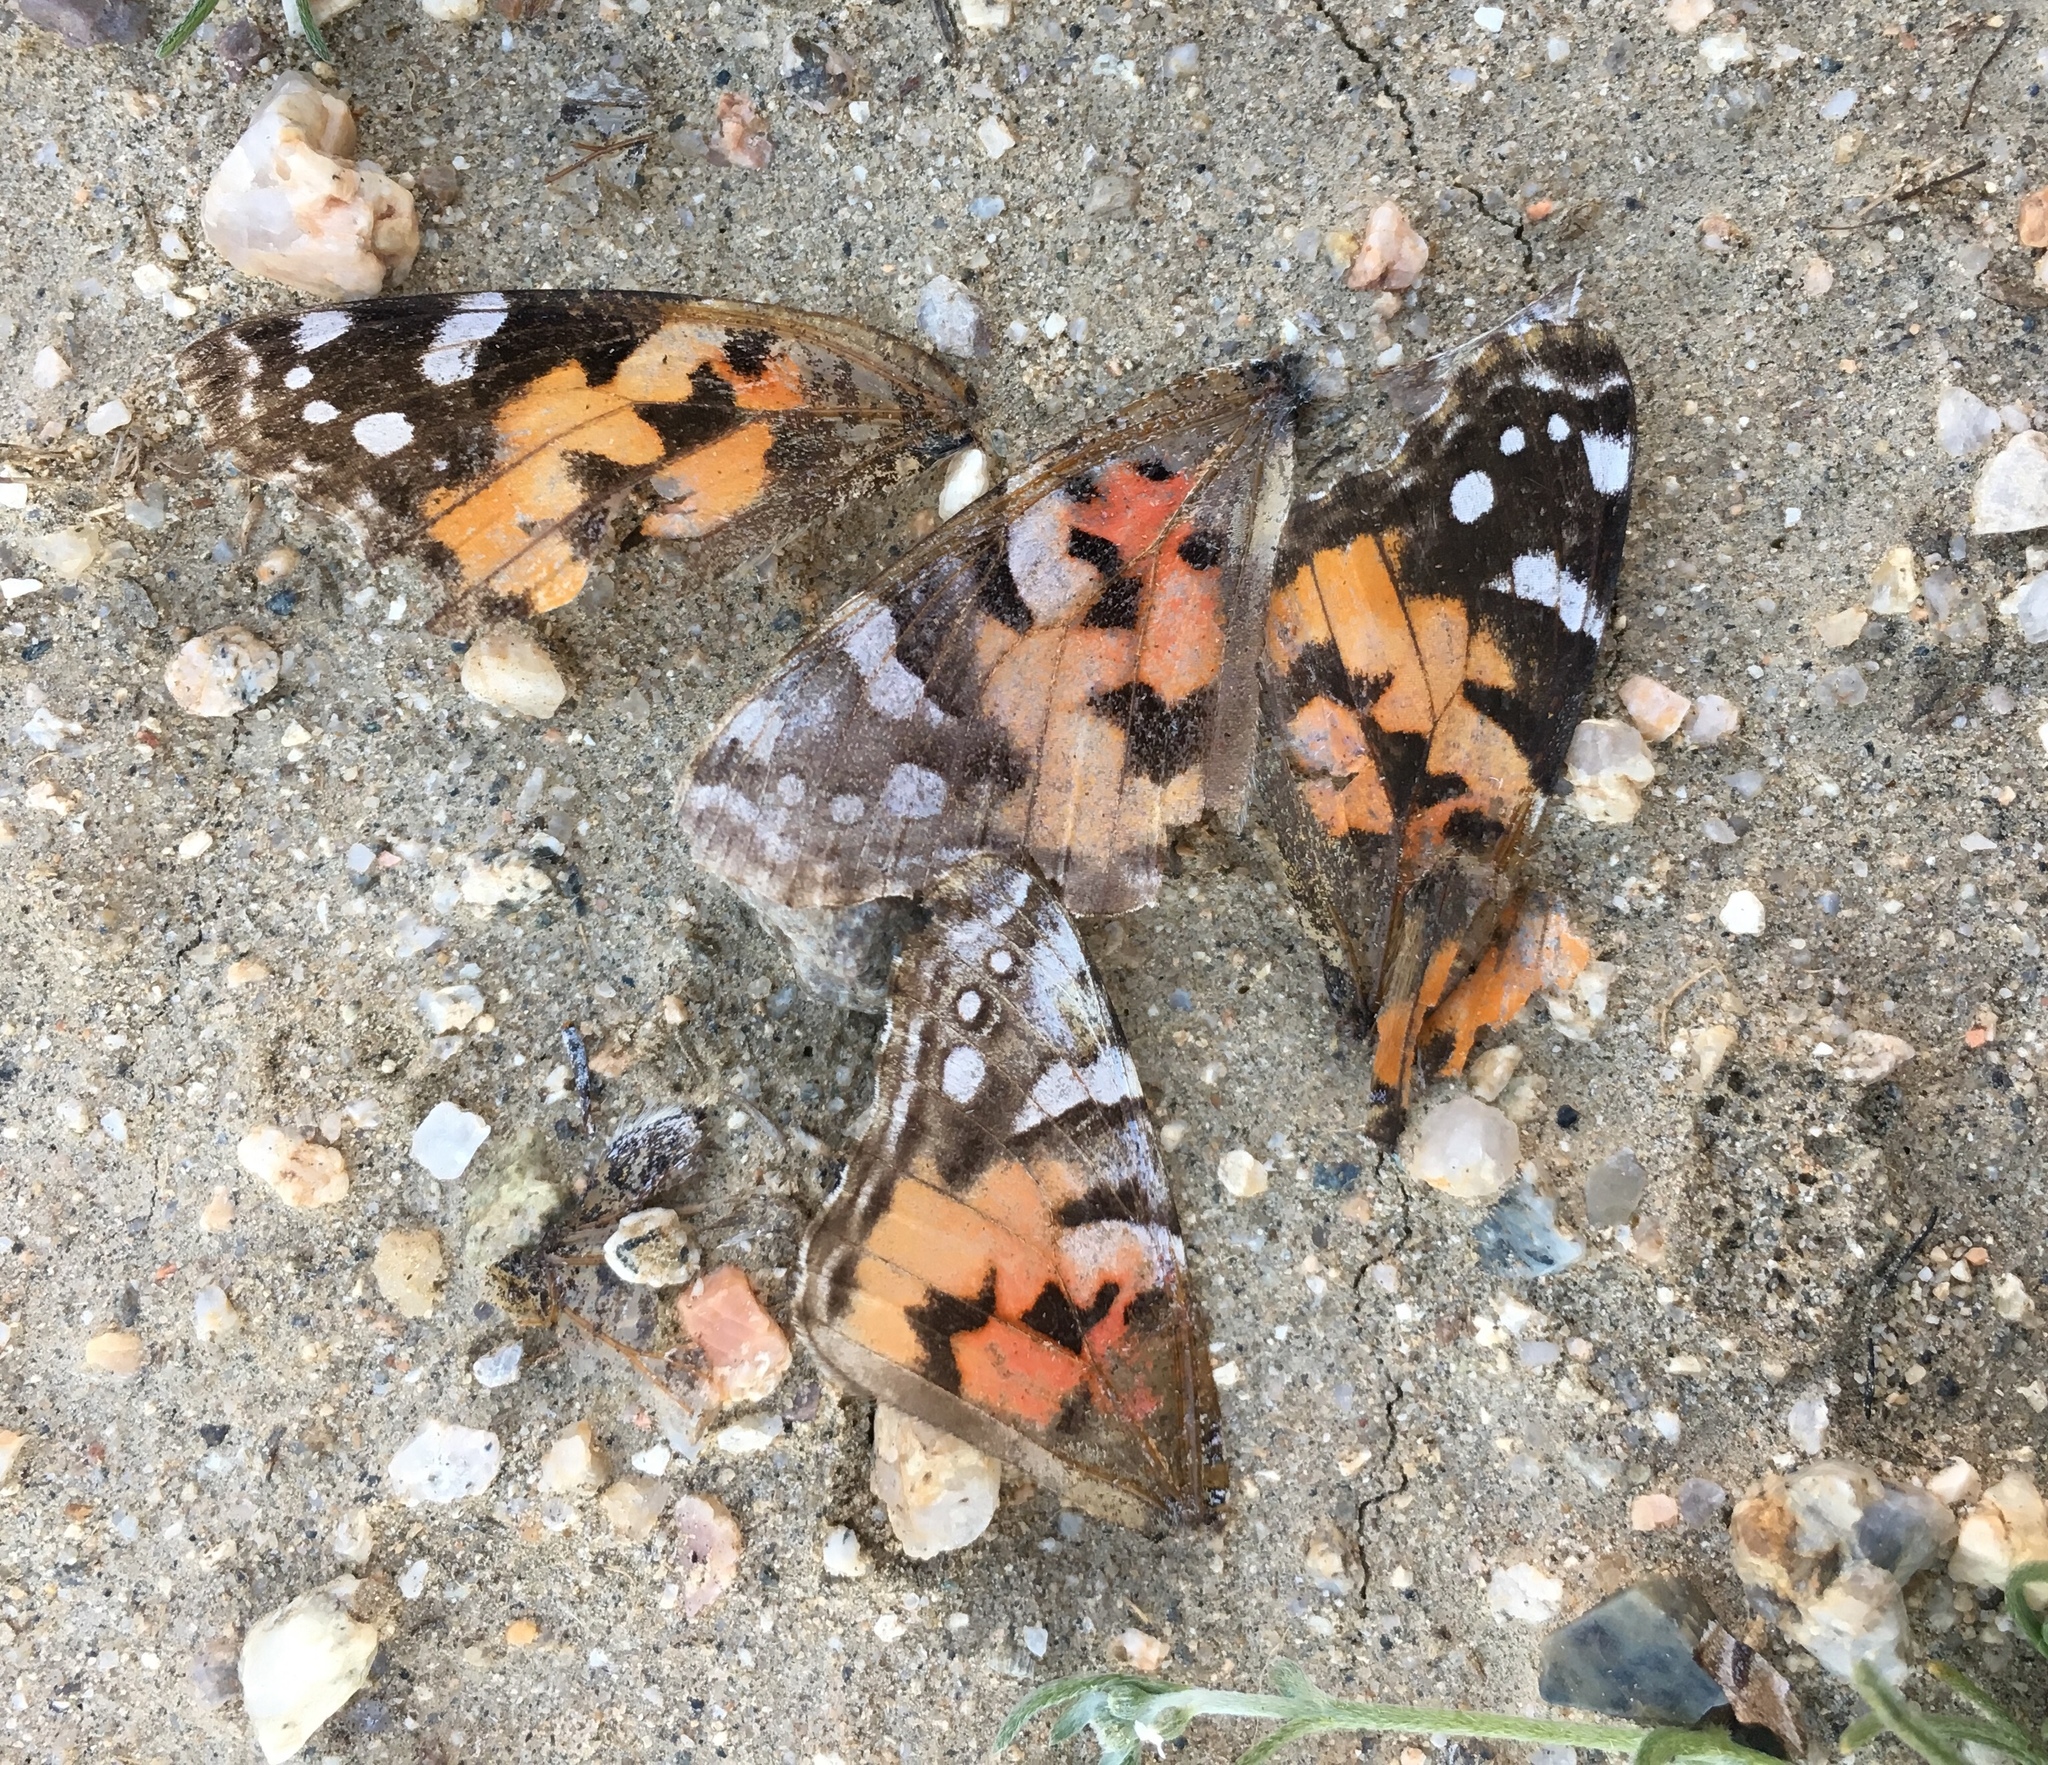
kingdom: Animalia
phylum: Arthropoda
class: Insecta
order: Lepidoptera
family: Nymphalidae
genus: Vanessa
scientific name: Vanessa cardui
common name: Painted lady
